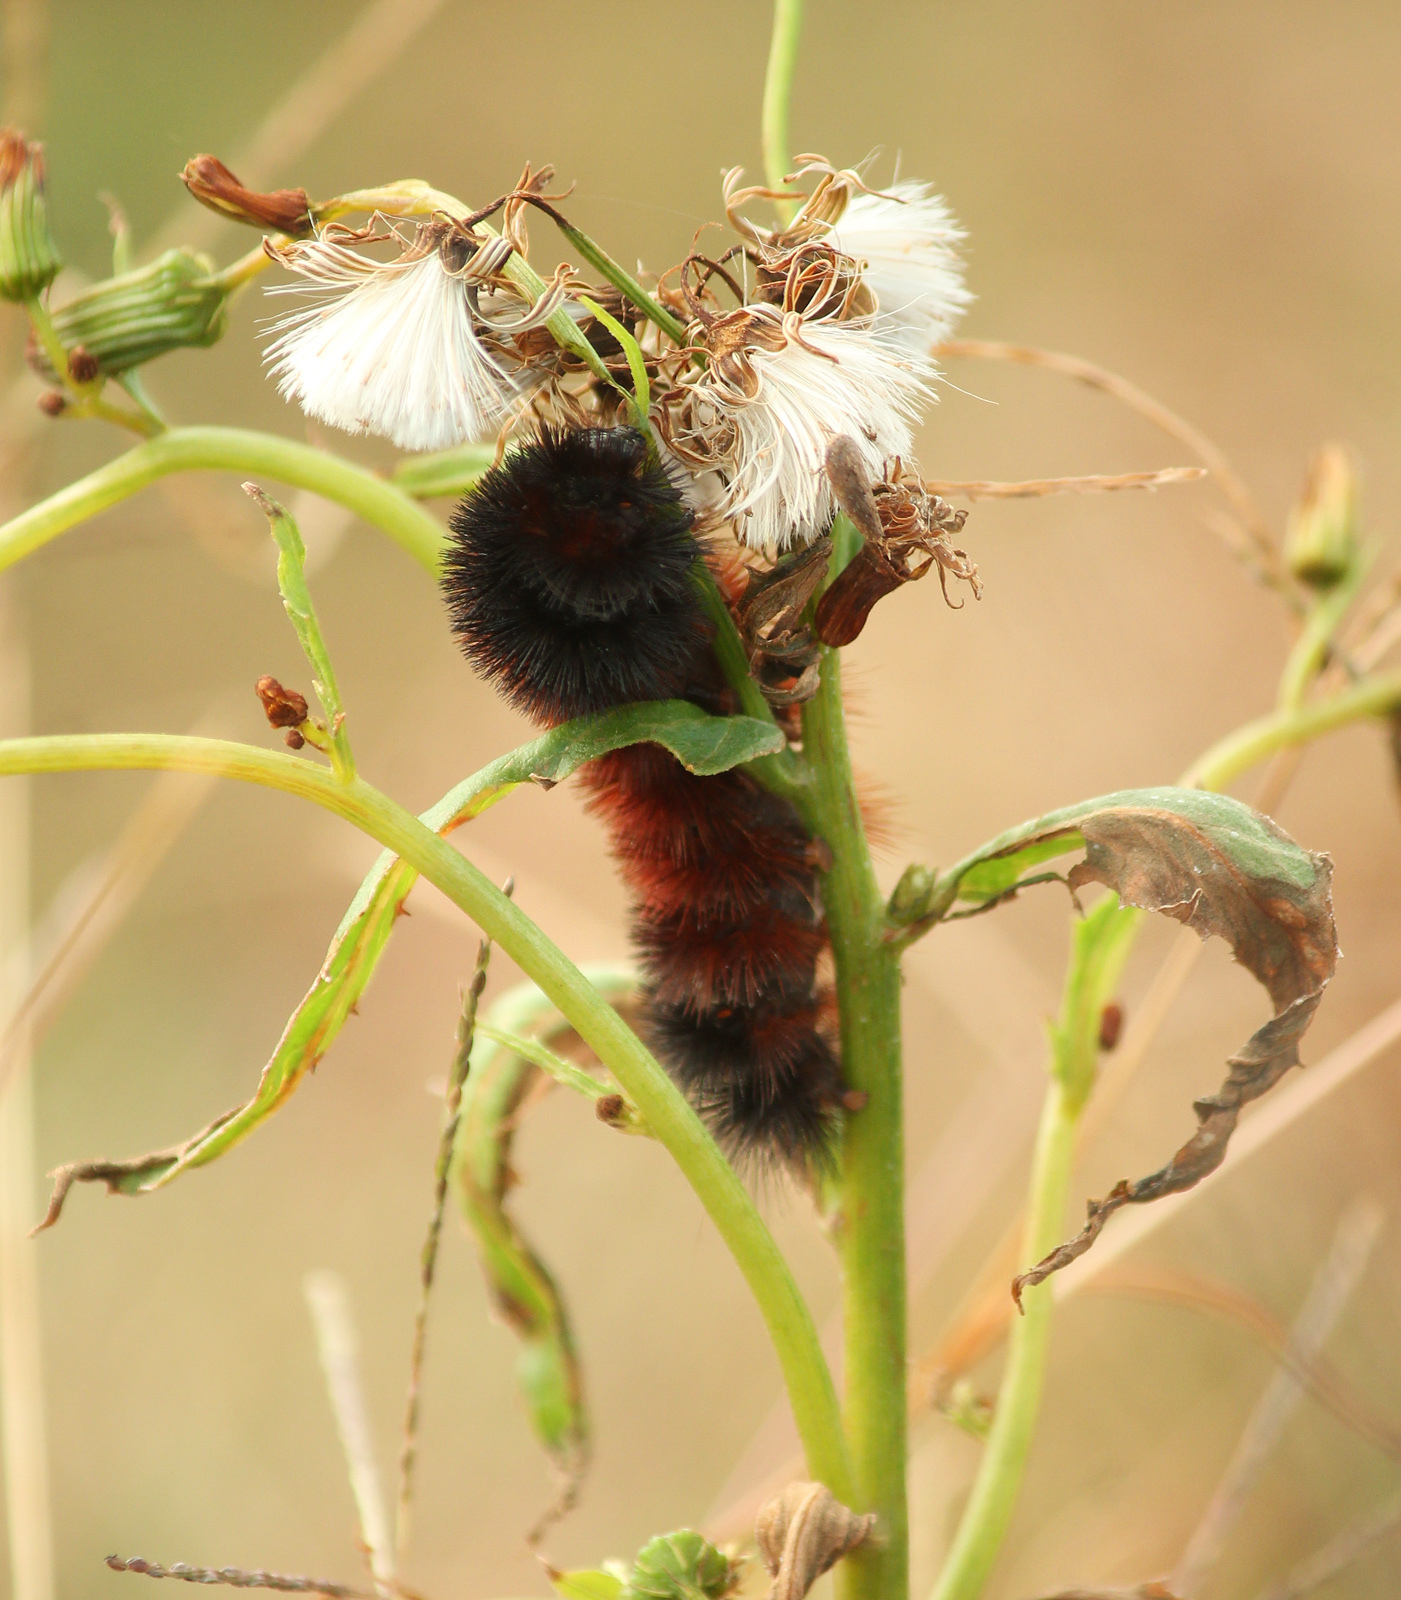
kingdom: Animalia
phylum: Arthropoda
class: Insecta
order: Lepidoptera
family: Erebidae
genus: Pyrrharctia
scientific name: Pyrrharctia isabella
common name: Isabella tiger moth
